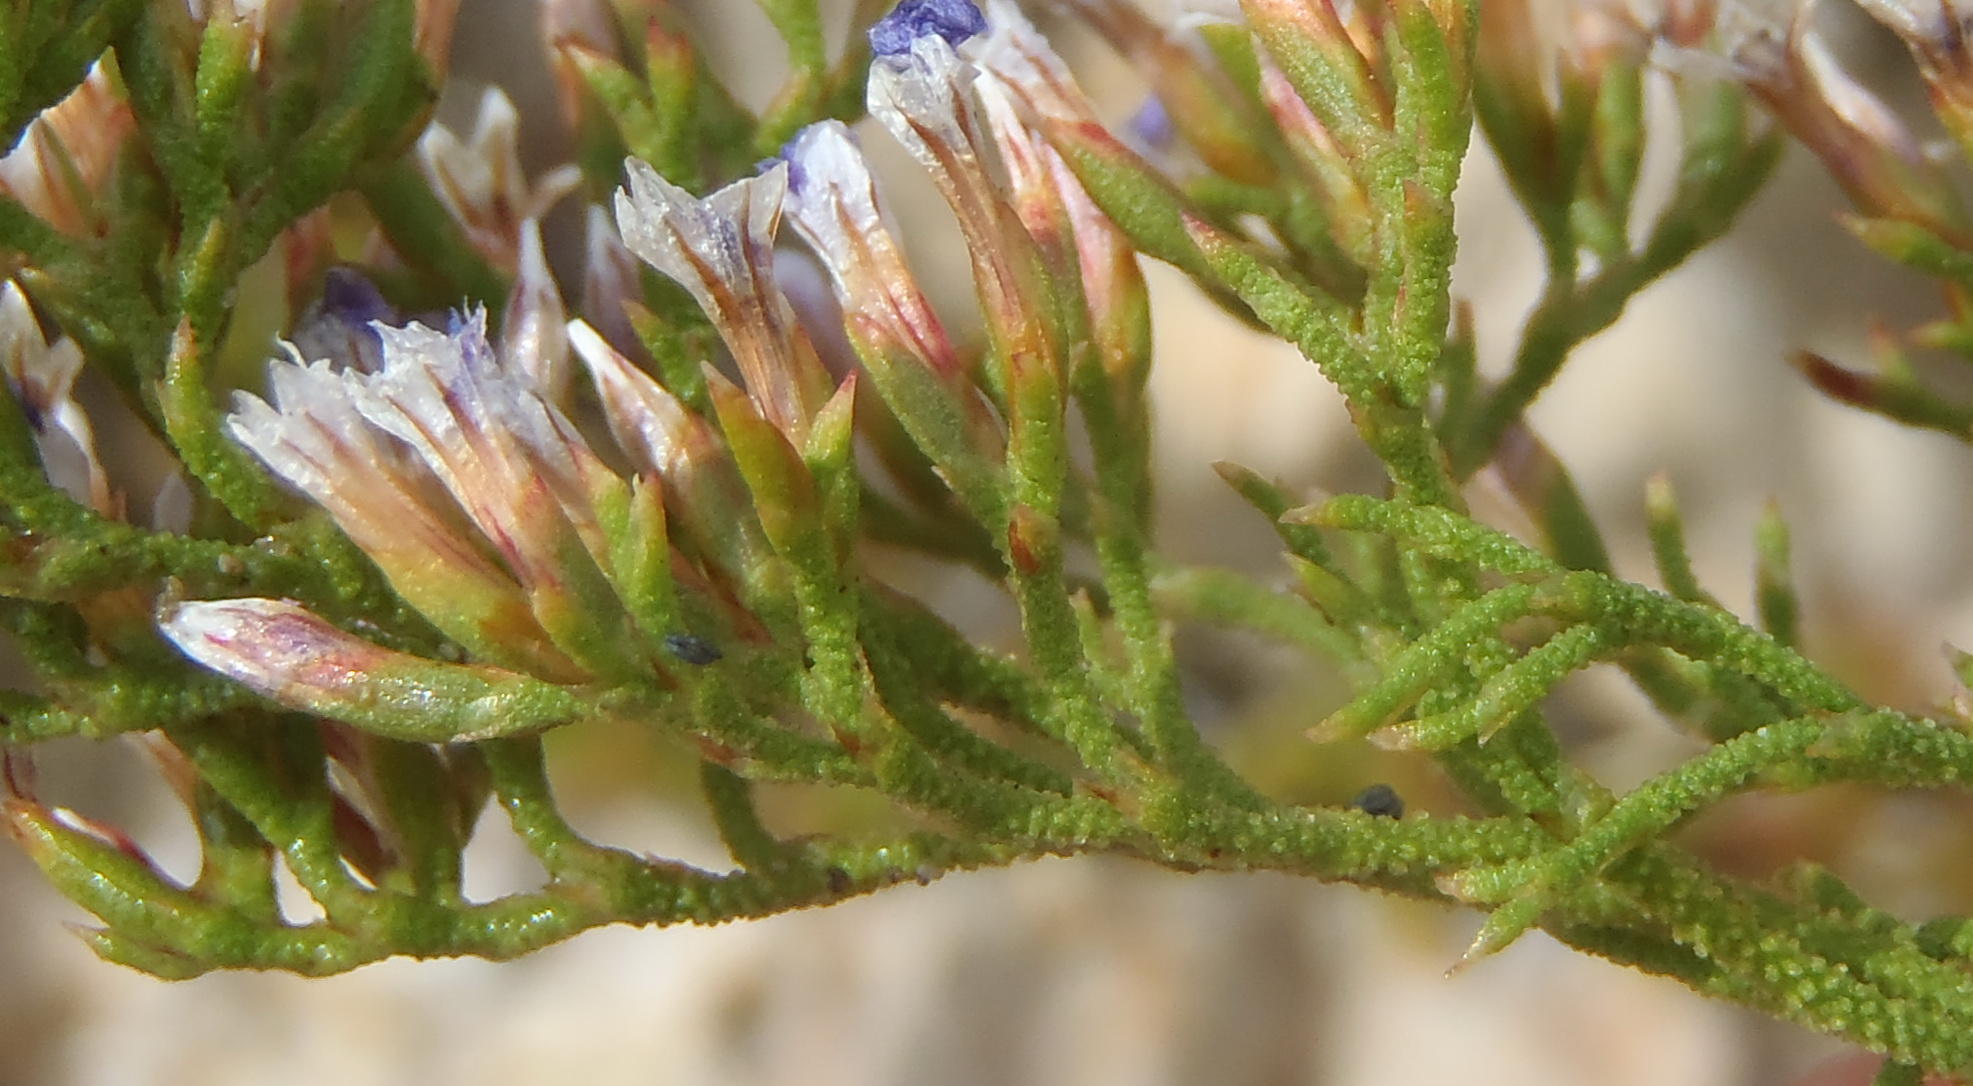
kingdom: Plantae
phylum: Tracheophyta
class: Magnoliopsida
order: Caryophyllales
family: Plumbaginaceae
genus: Limonium
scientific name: Limonium scabrum
